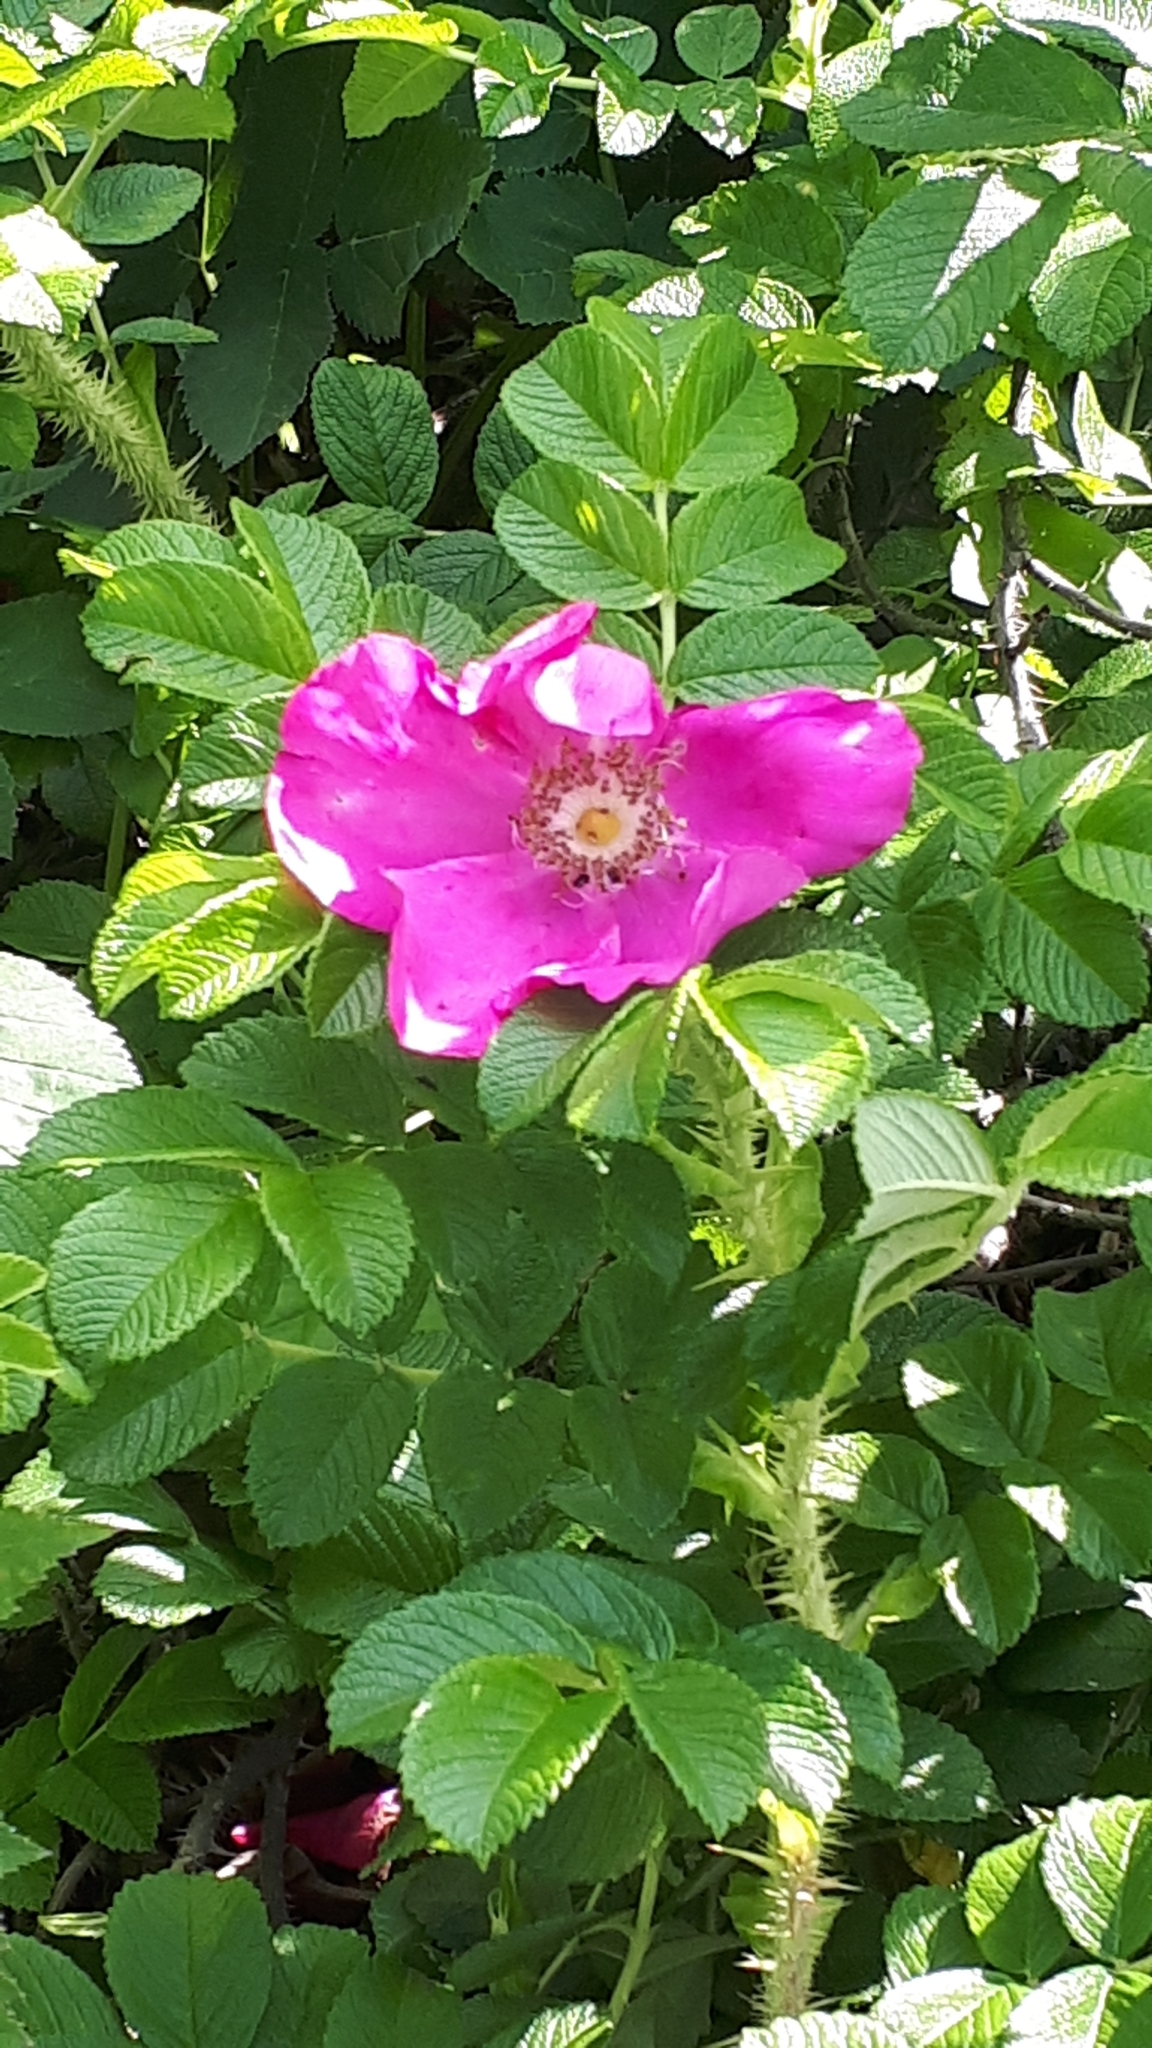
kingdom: Plantae
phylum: Tracheophyta
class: Magnoliopsida
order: Rosales
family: Rosaceae
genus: Rosa
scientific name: Rosa rugosa
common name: Japanese rose
